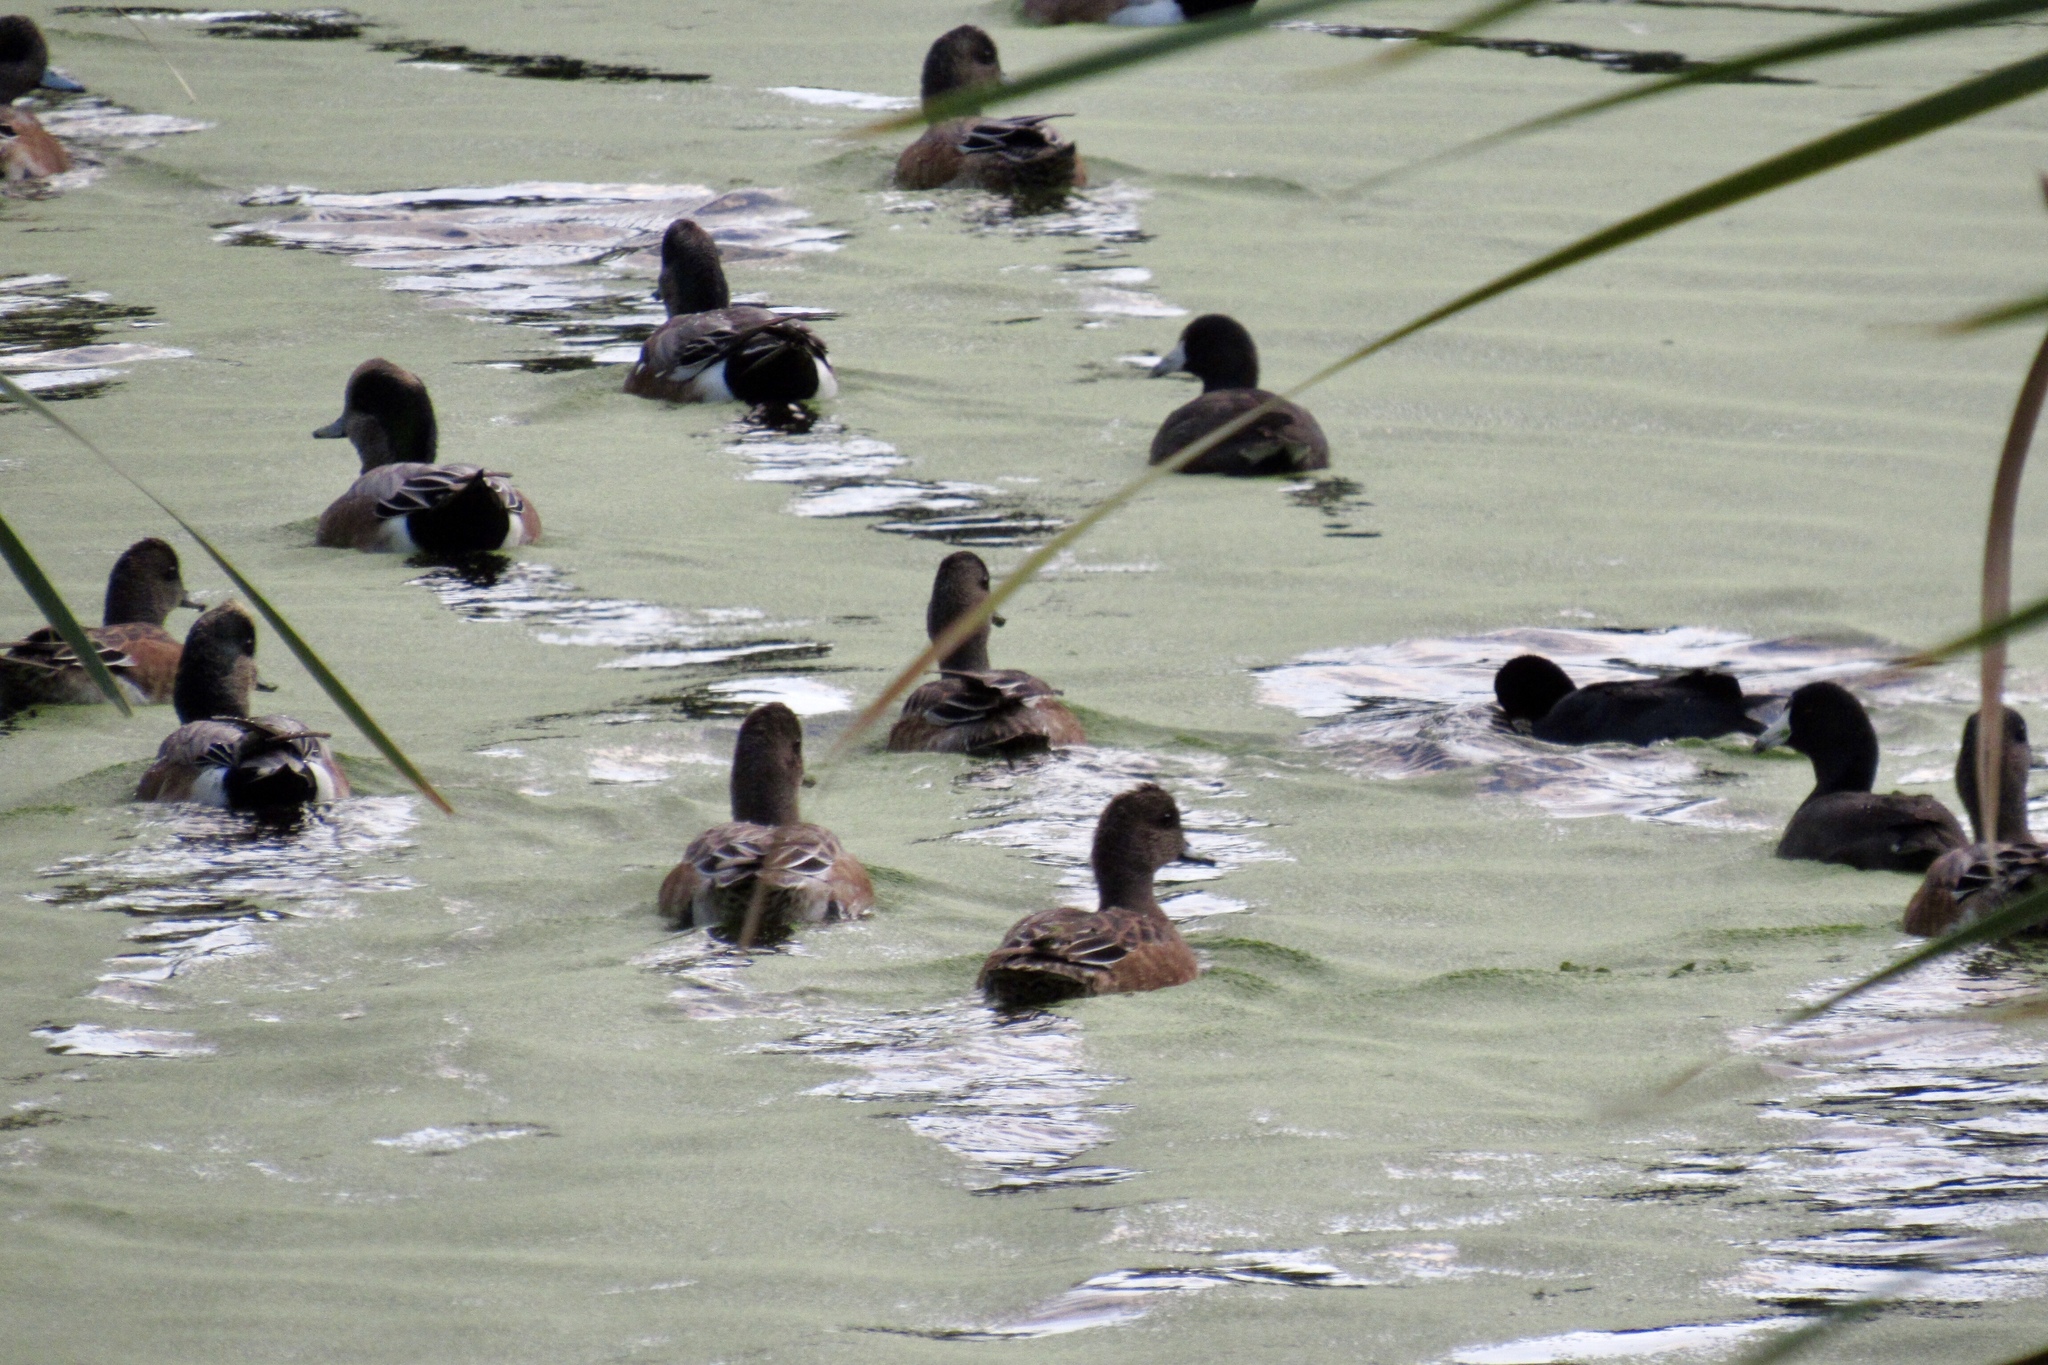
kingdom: Animalia
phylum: Chordata
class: Aves
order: Anseriformes
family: Anatidae
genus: Mareca
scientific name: Mareca americana
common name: American wigeon
